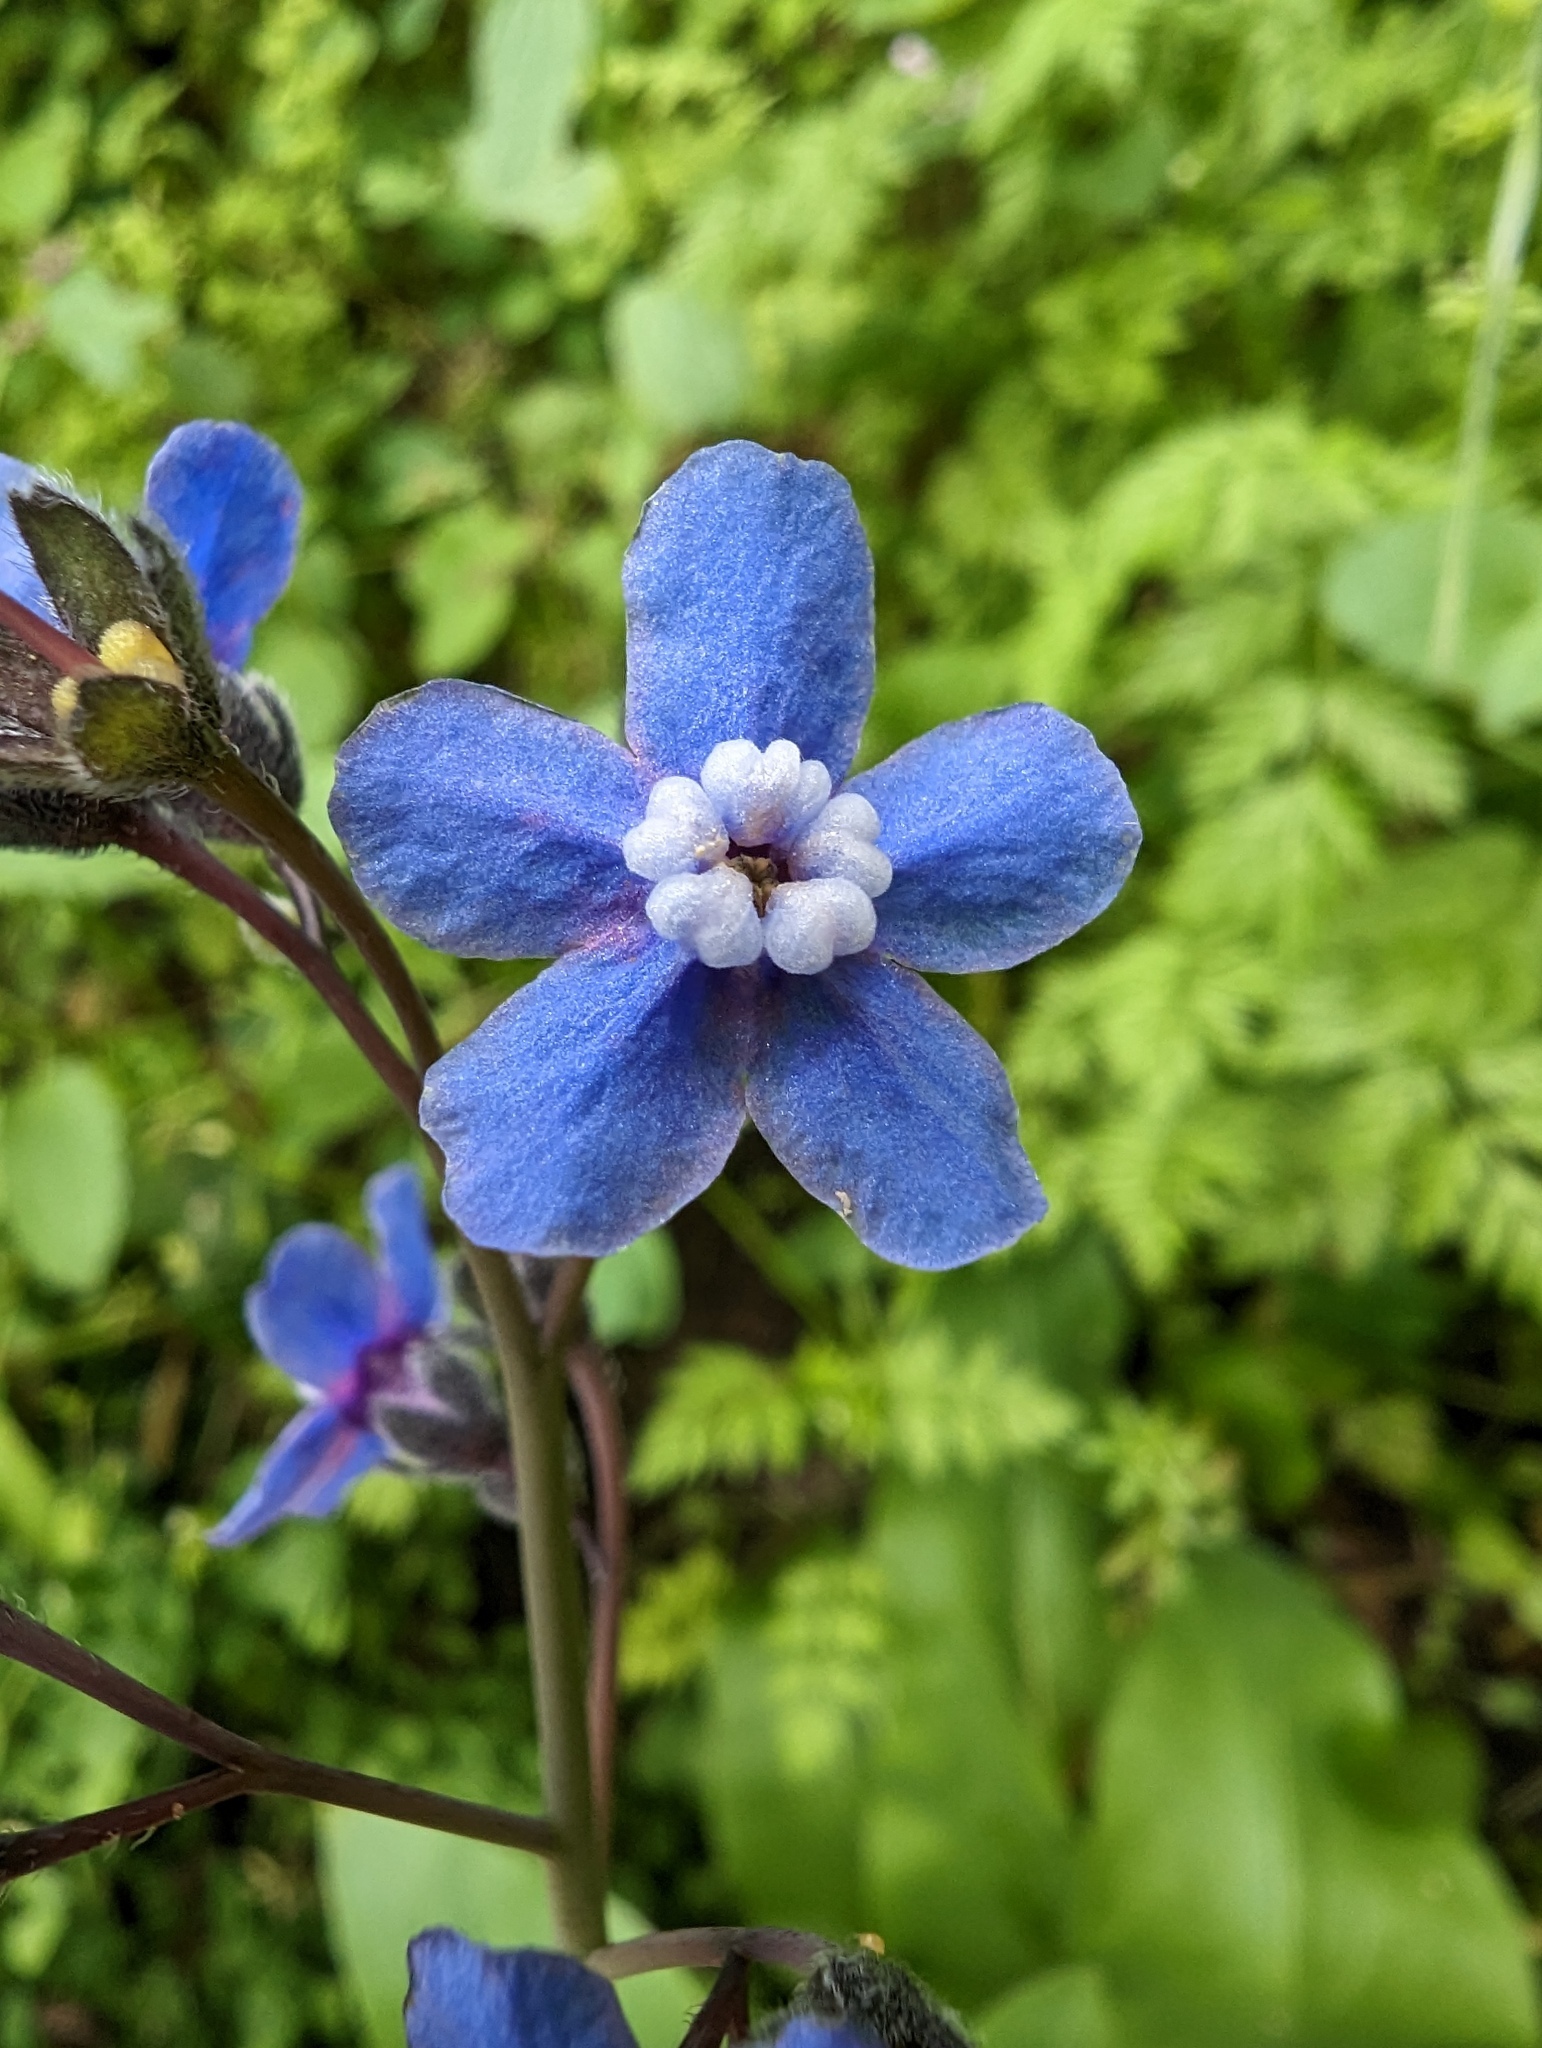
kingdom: Plantae
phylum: Tracheophyta
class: Magnoliopsida
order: Boraginales
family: Boraginaceae
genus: Adelinia
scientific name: Adelinia grande
